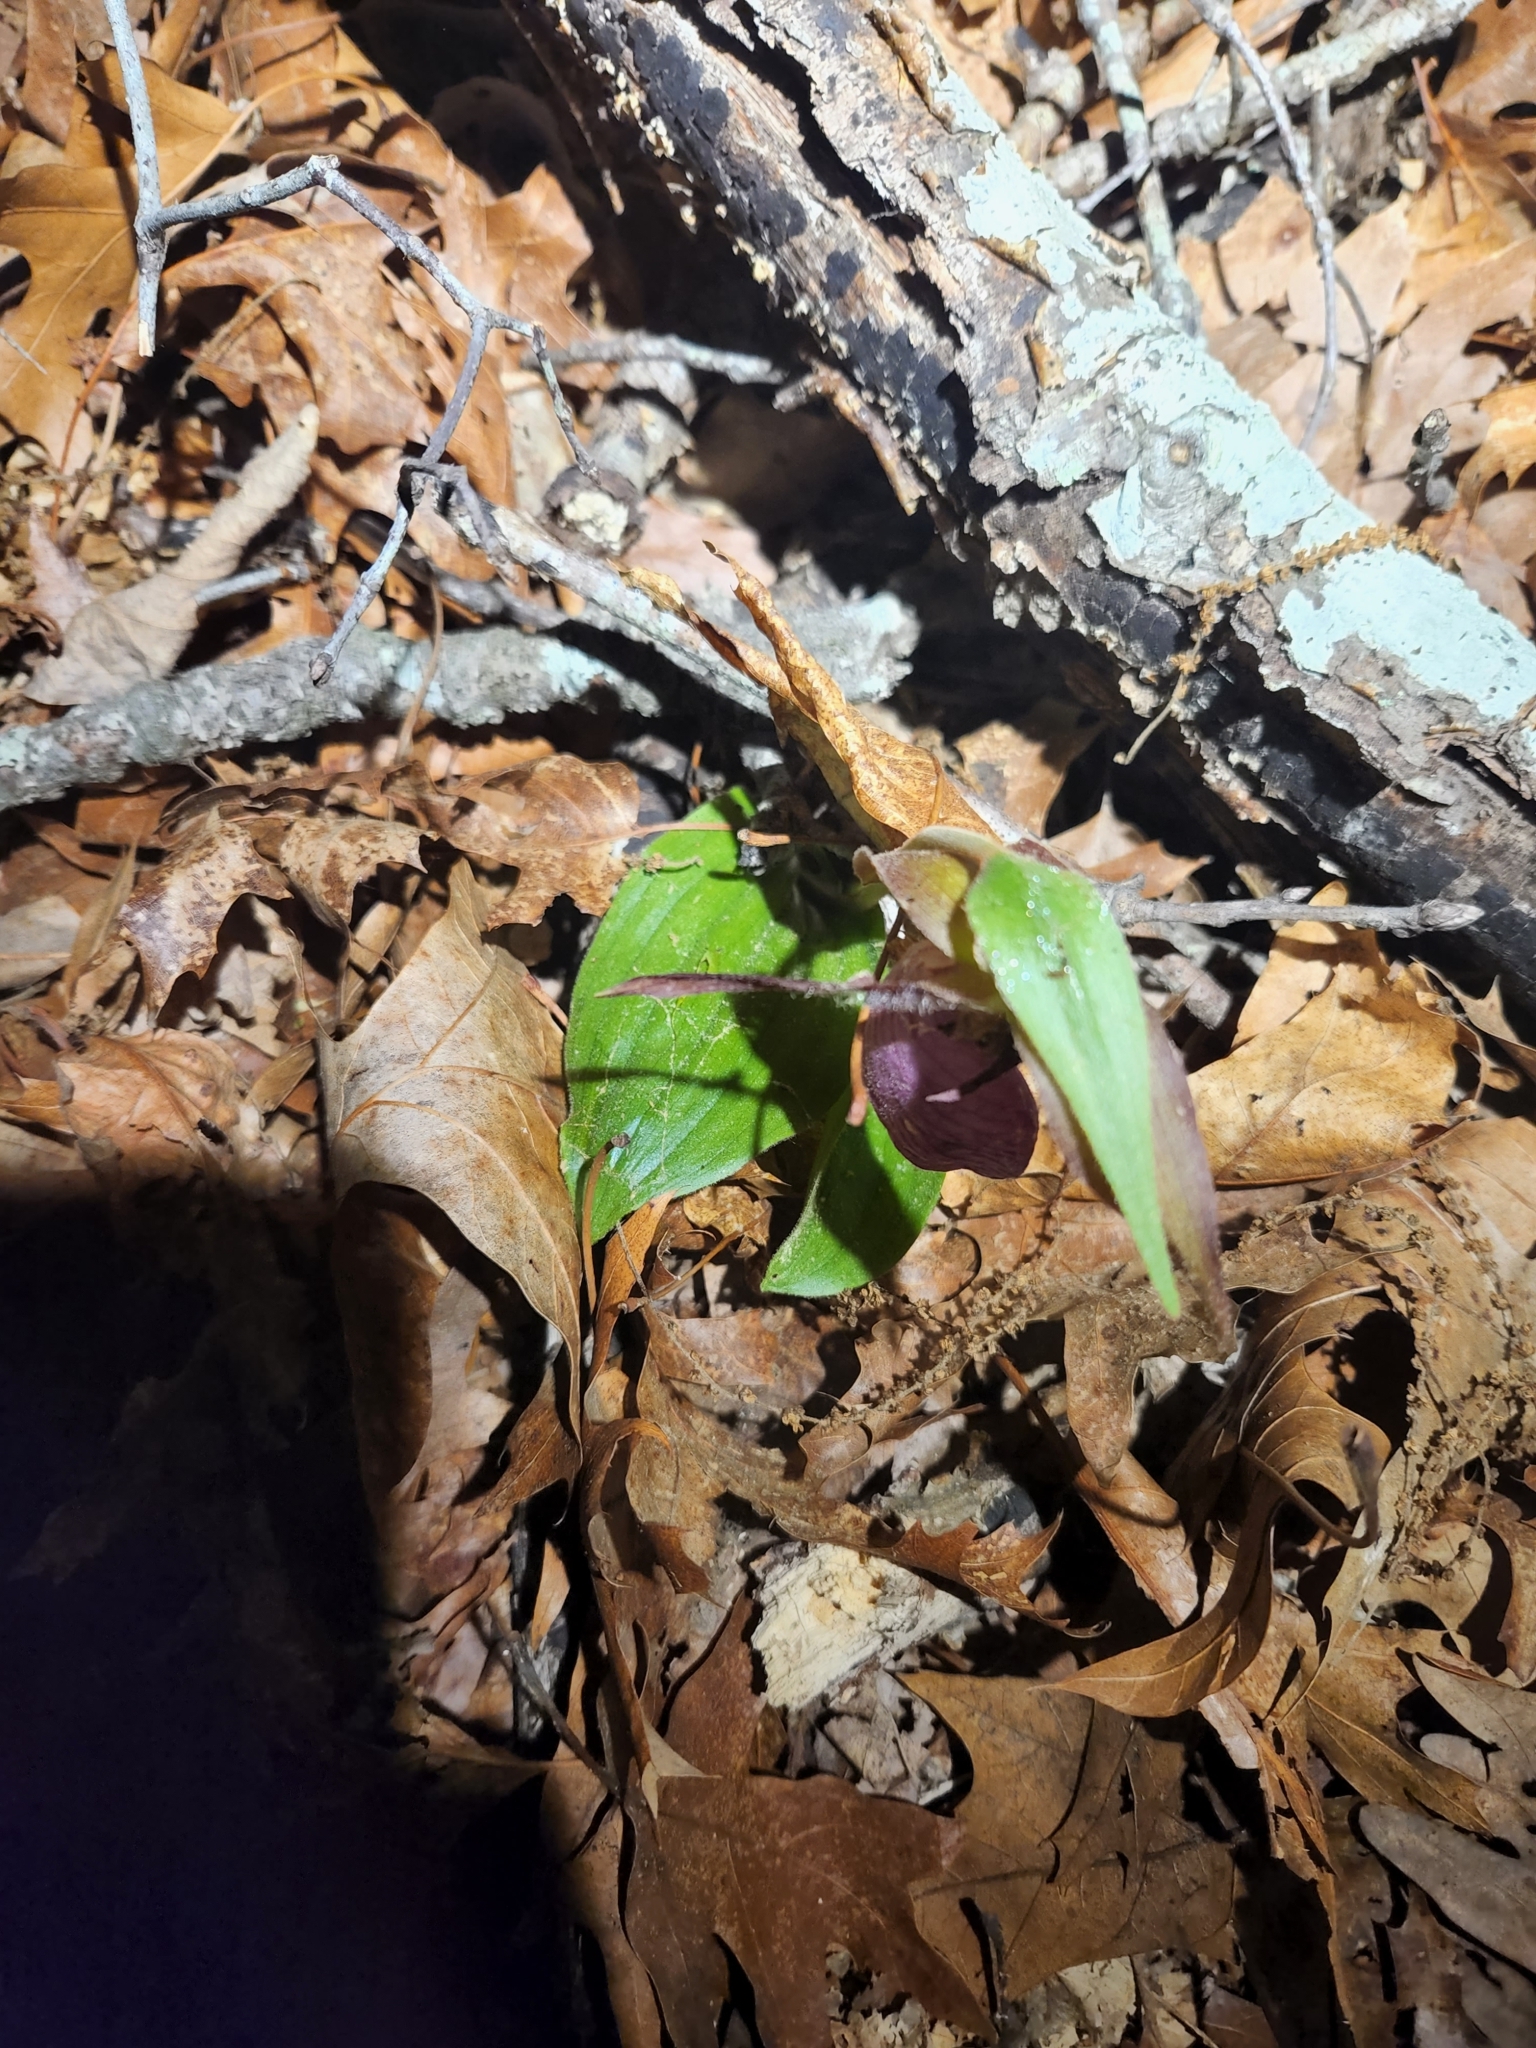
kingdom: Plantae
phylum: Tracheophyta
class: Liliopsida
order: Asparagales
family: Orchidaceae
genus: Cypripedium
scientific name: Cypripedium acaule
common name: Pink lady's-slipper
